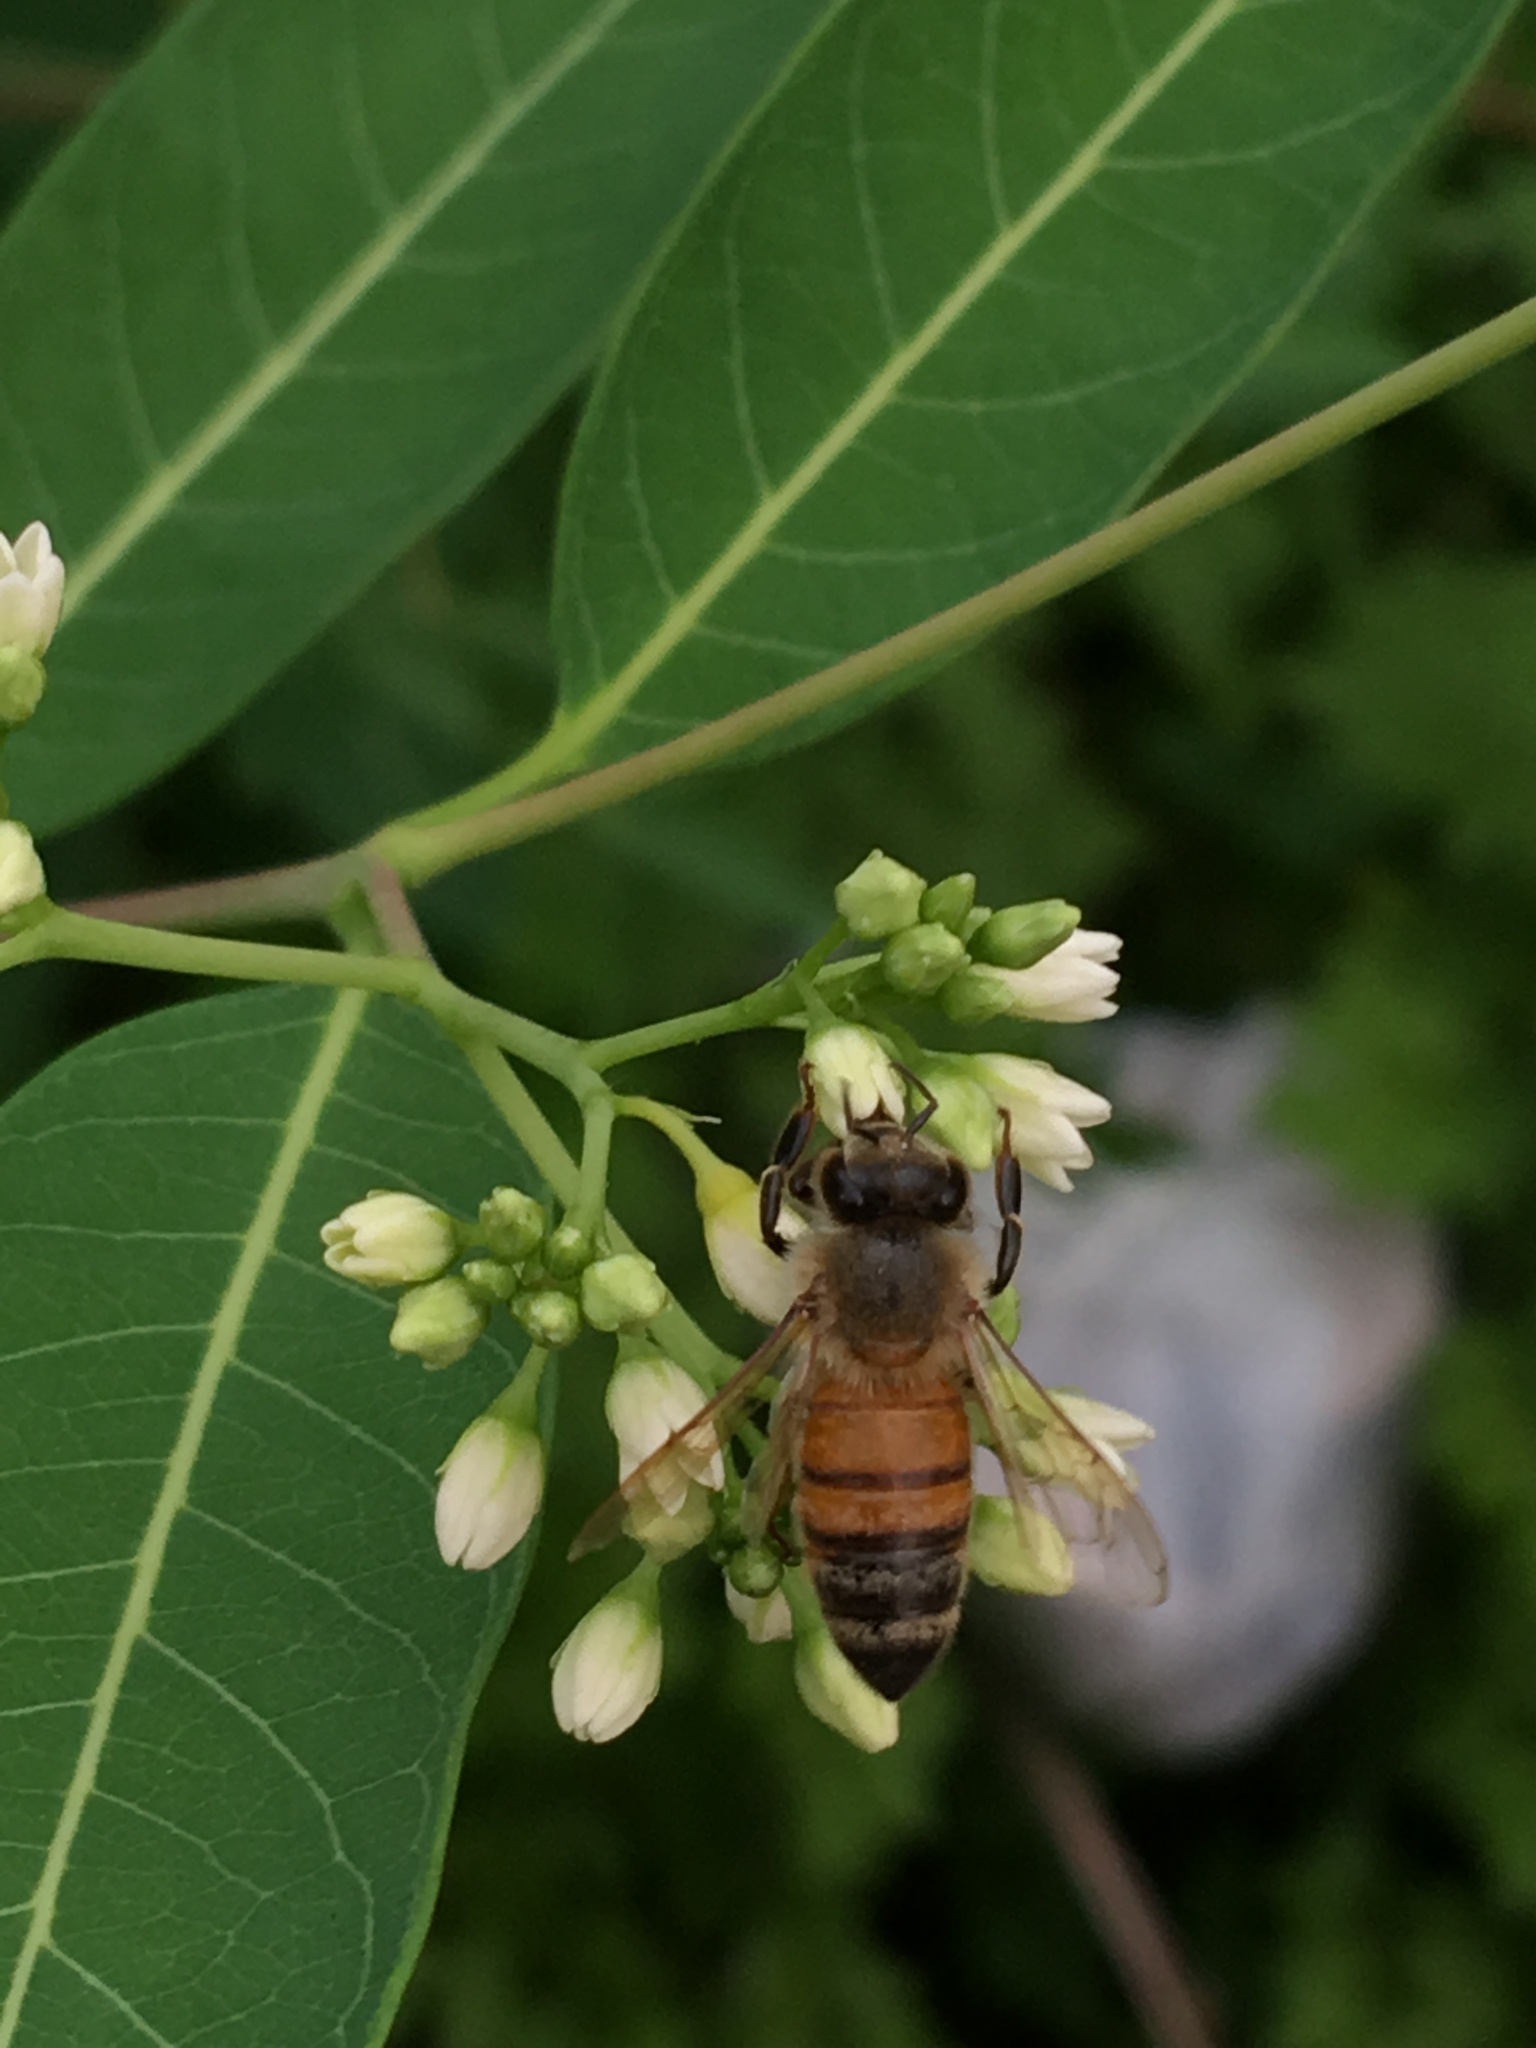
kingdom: Animalia
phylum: Arthropoda
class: Insecta
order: Hymenoptera
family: Apidae
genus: Apis
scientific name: Apis mellifera
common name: Honey bee
